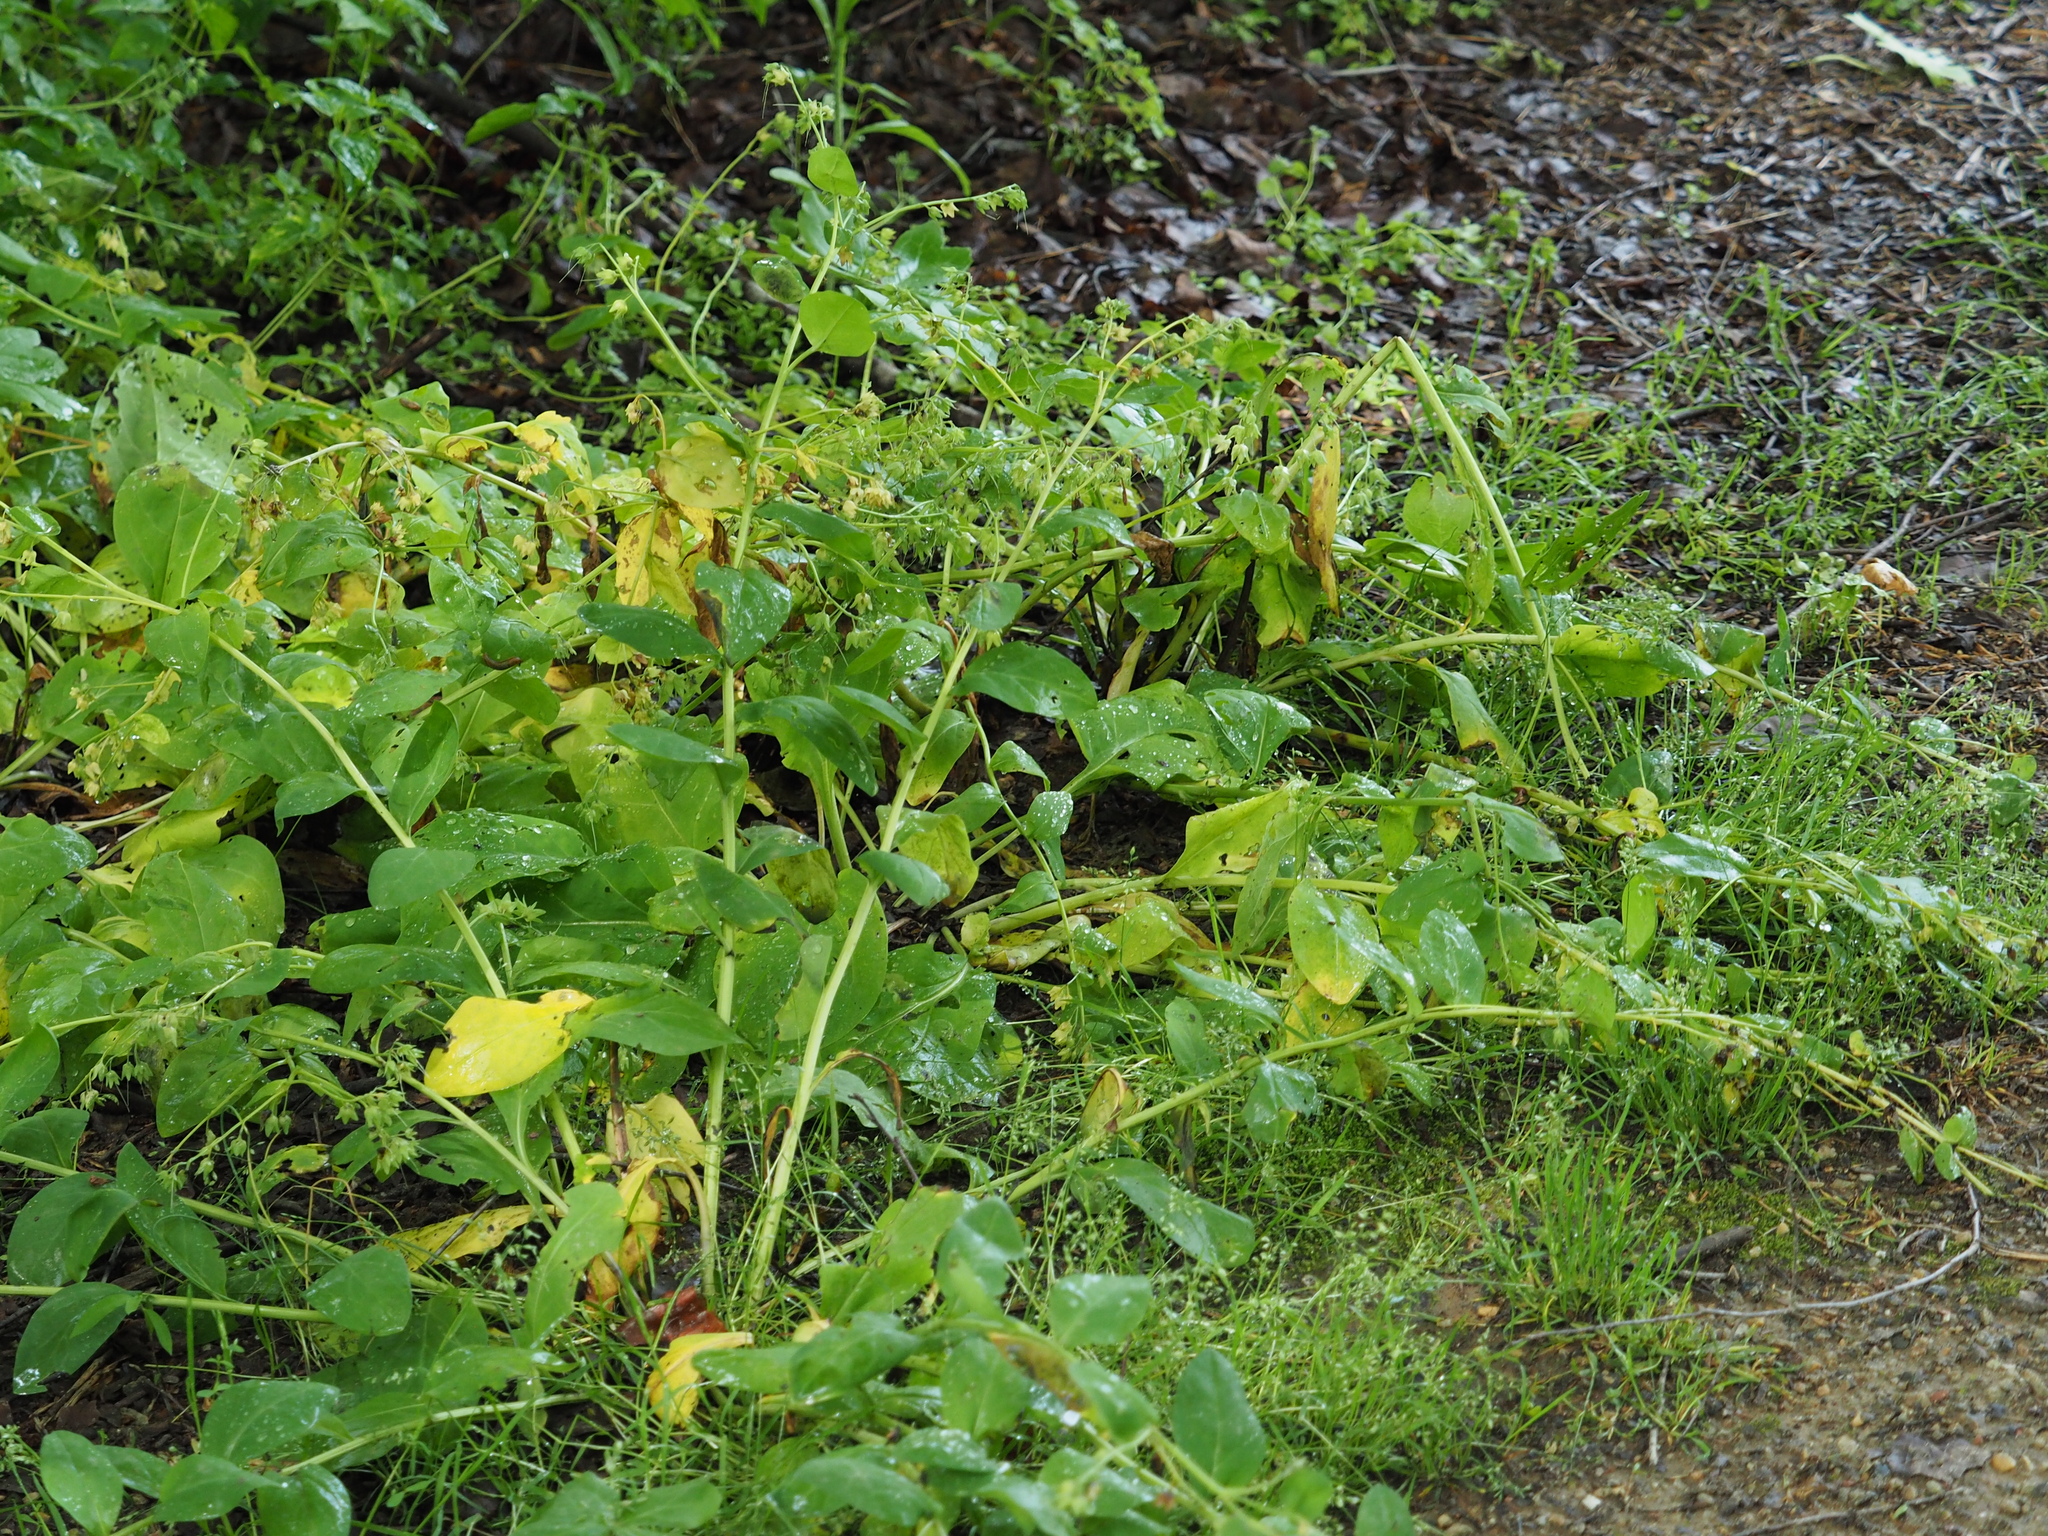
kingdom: Plantae
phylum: Tracheophyta
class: Magnoliopsida
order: Boraginales
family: Boraginaceae
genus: Mertensia
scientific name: Mertensia virginica
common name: Virginia bluebells
